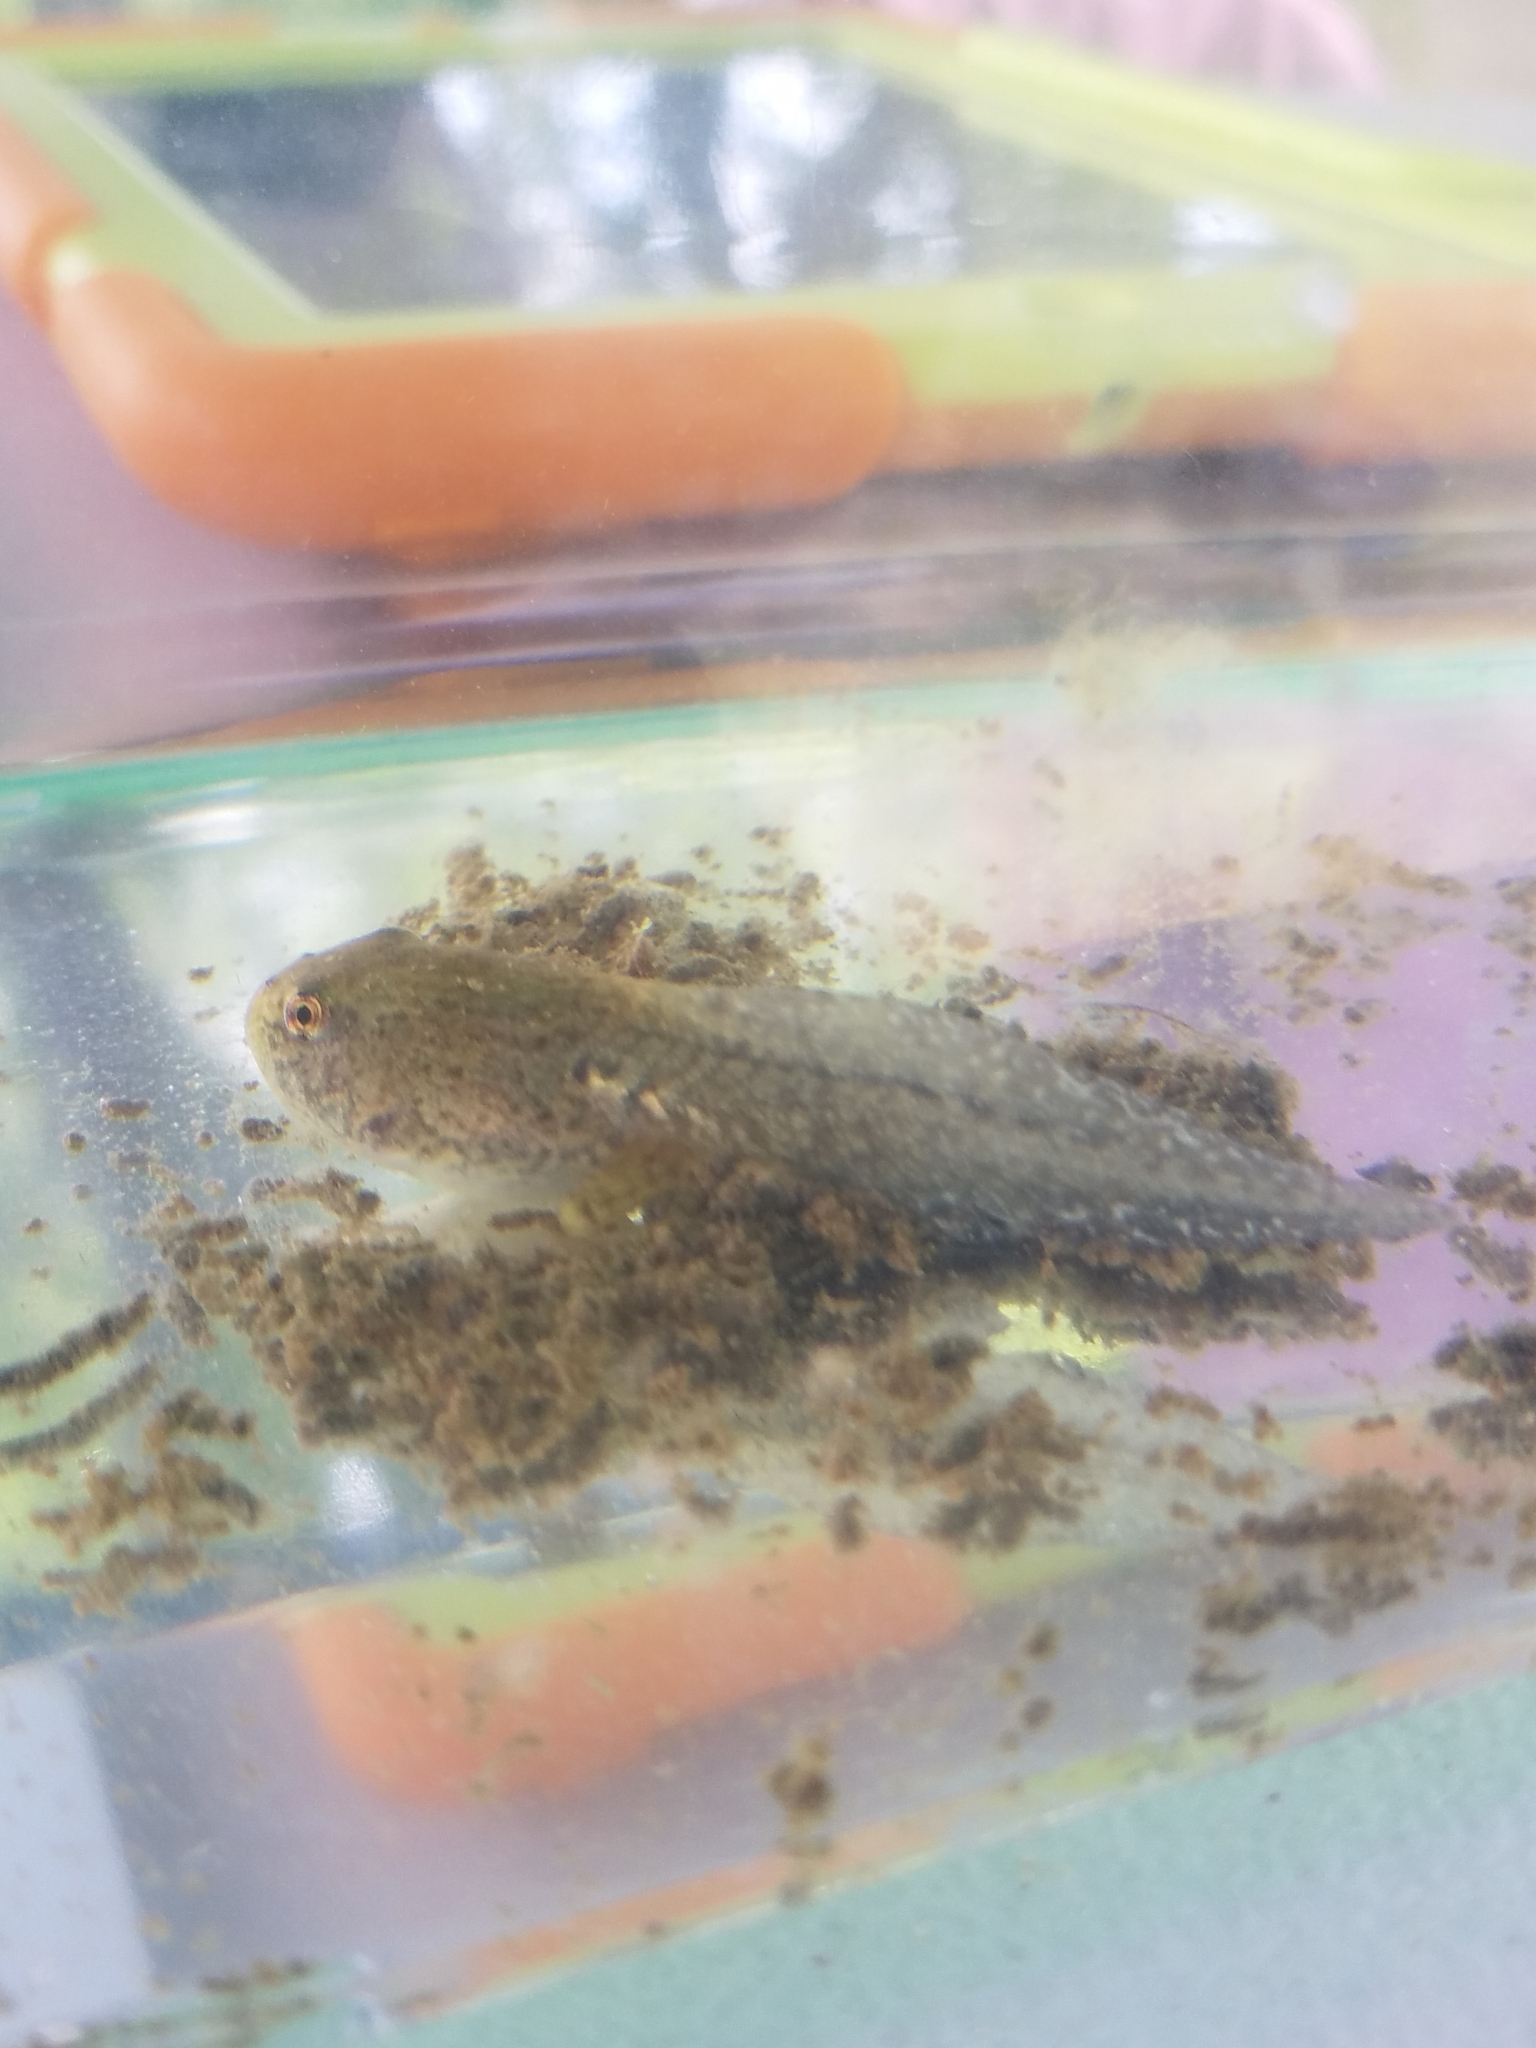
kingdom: Animalia
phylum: Chordata
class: Amphibia
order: Anura
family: Ranidae
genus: Lithobates
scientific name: Lithobates clamitans
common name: Green frog
